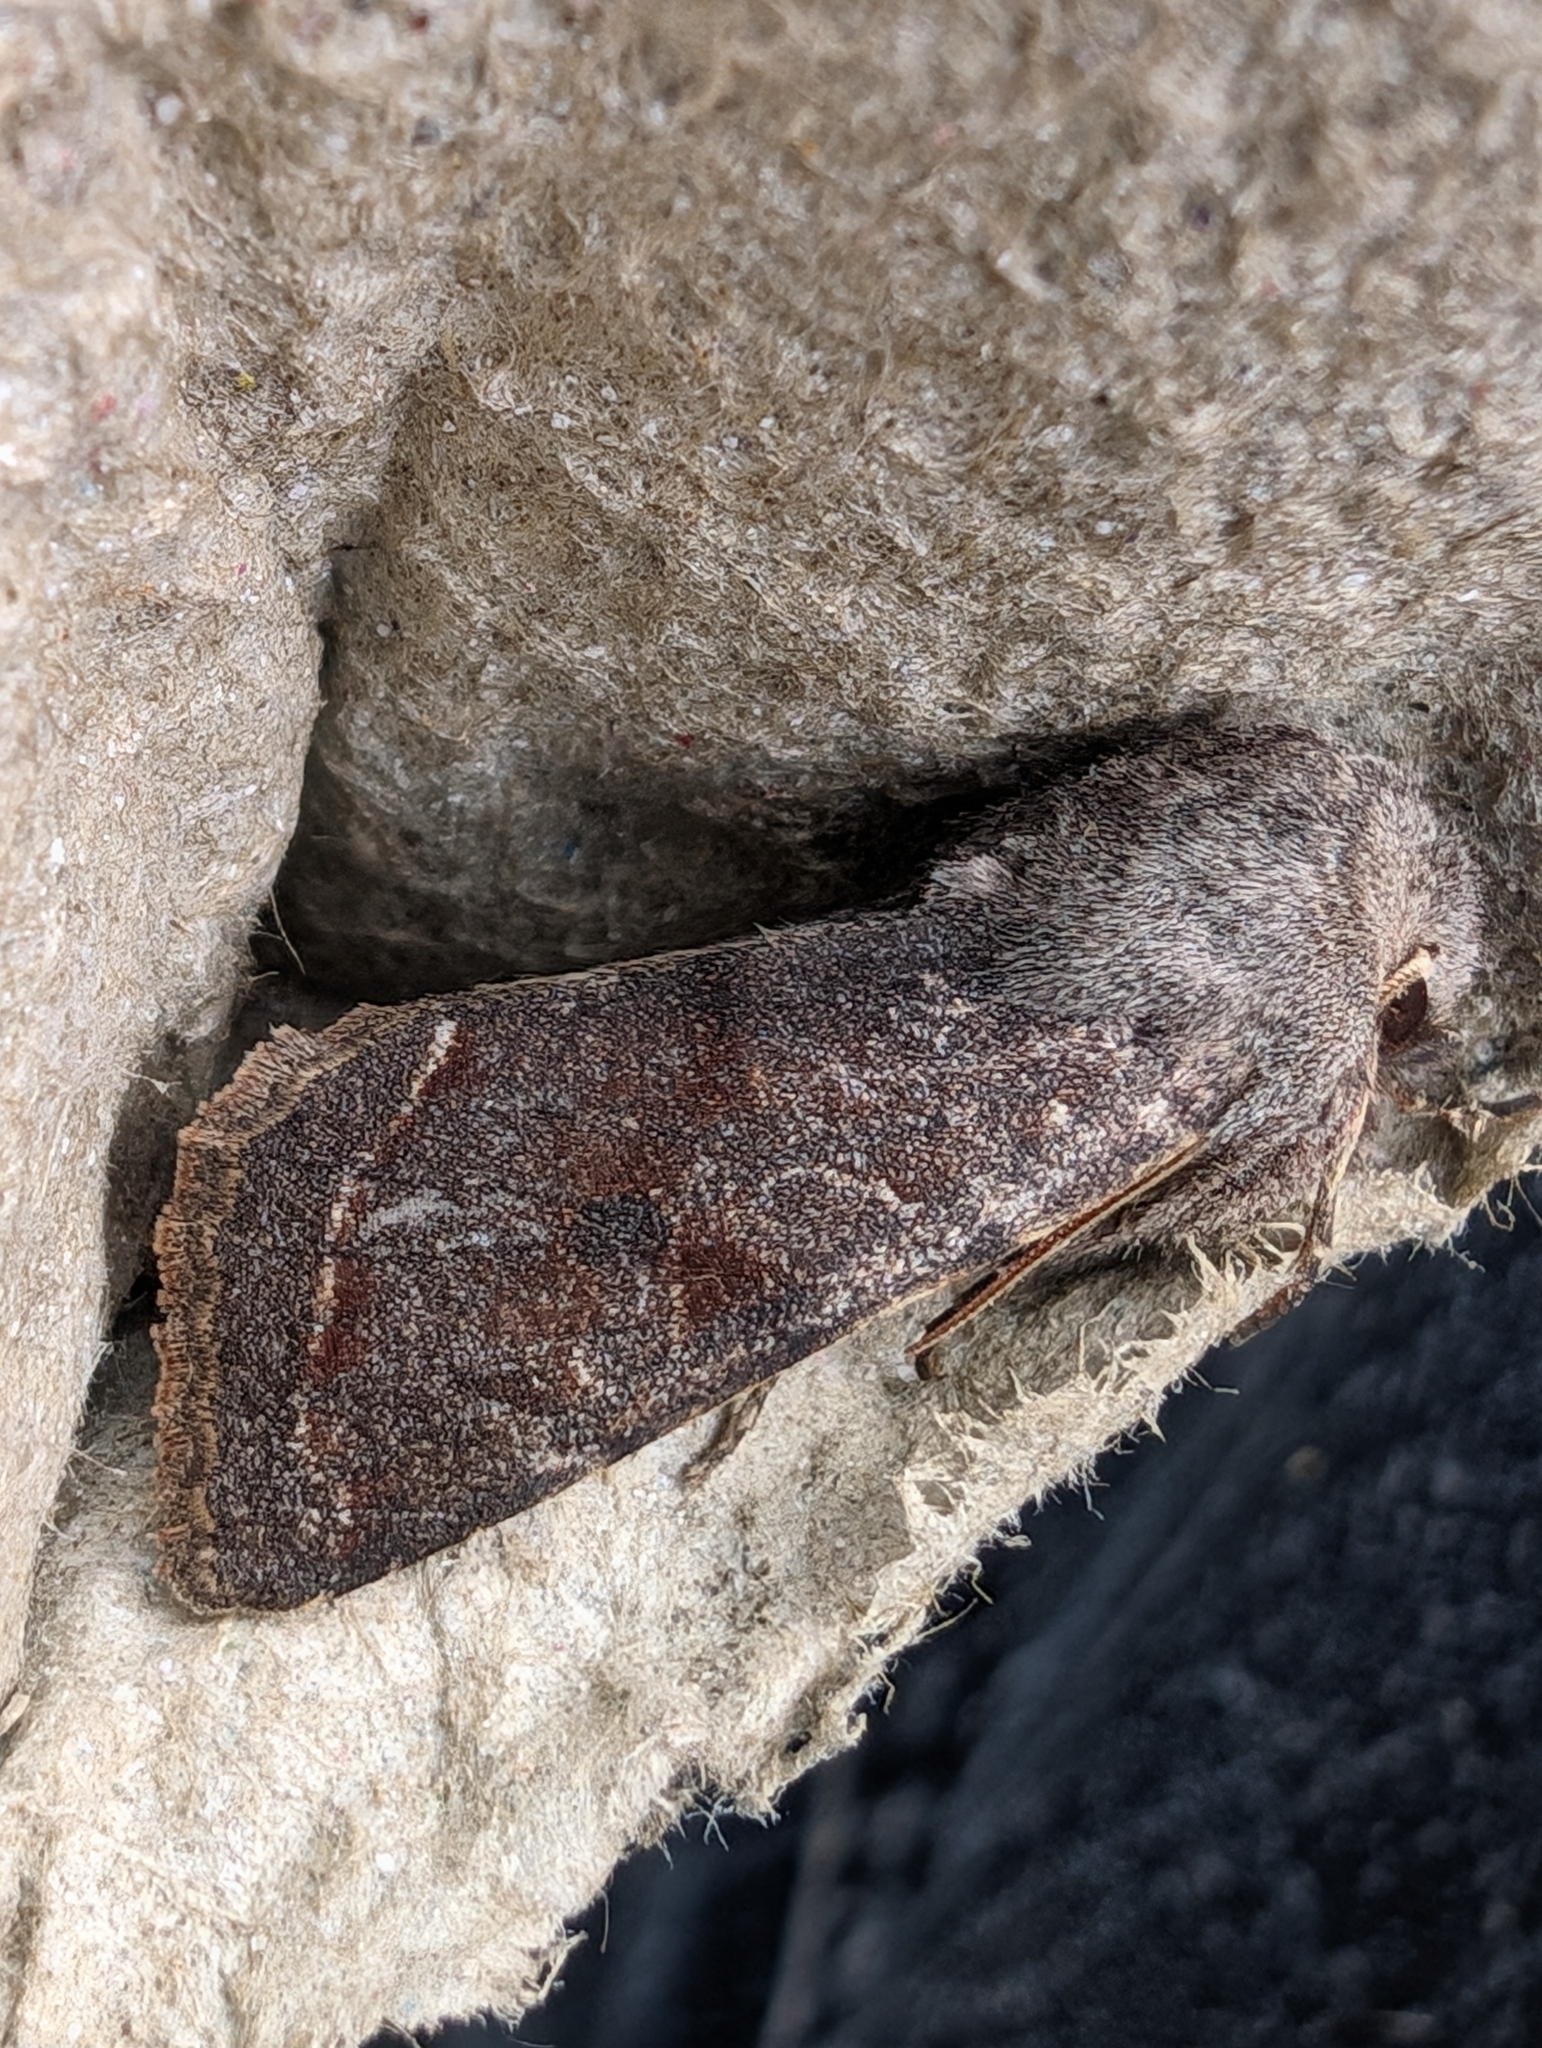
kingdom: Animalia
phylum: Arthropoda
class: Insecta
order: Lepidoptera
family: Noctuidae
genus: Orthosia
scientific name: Orthosia incerta
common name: Clouded drab
